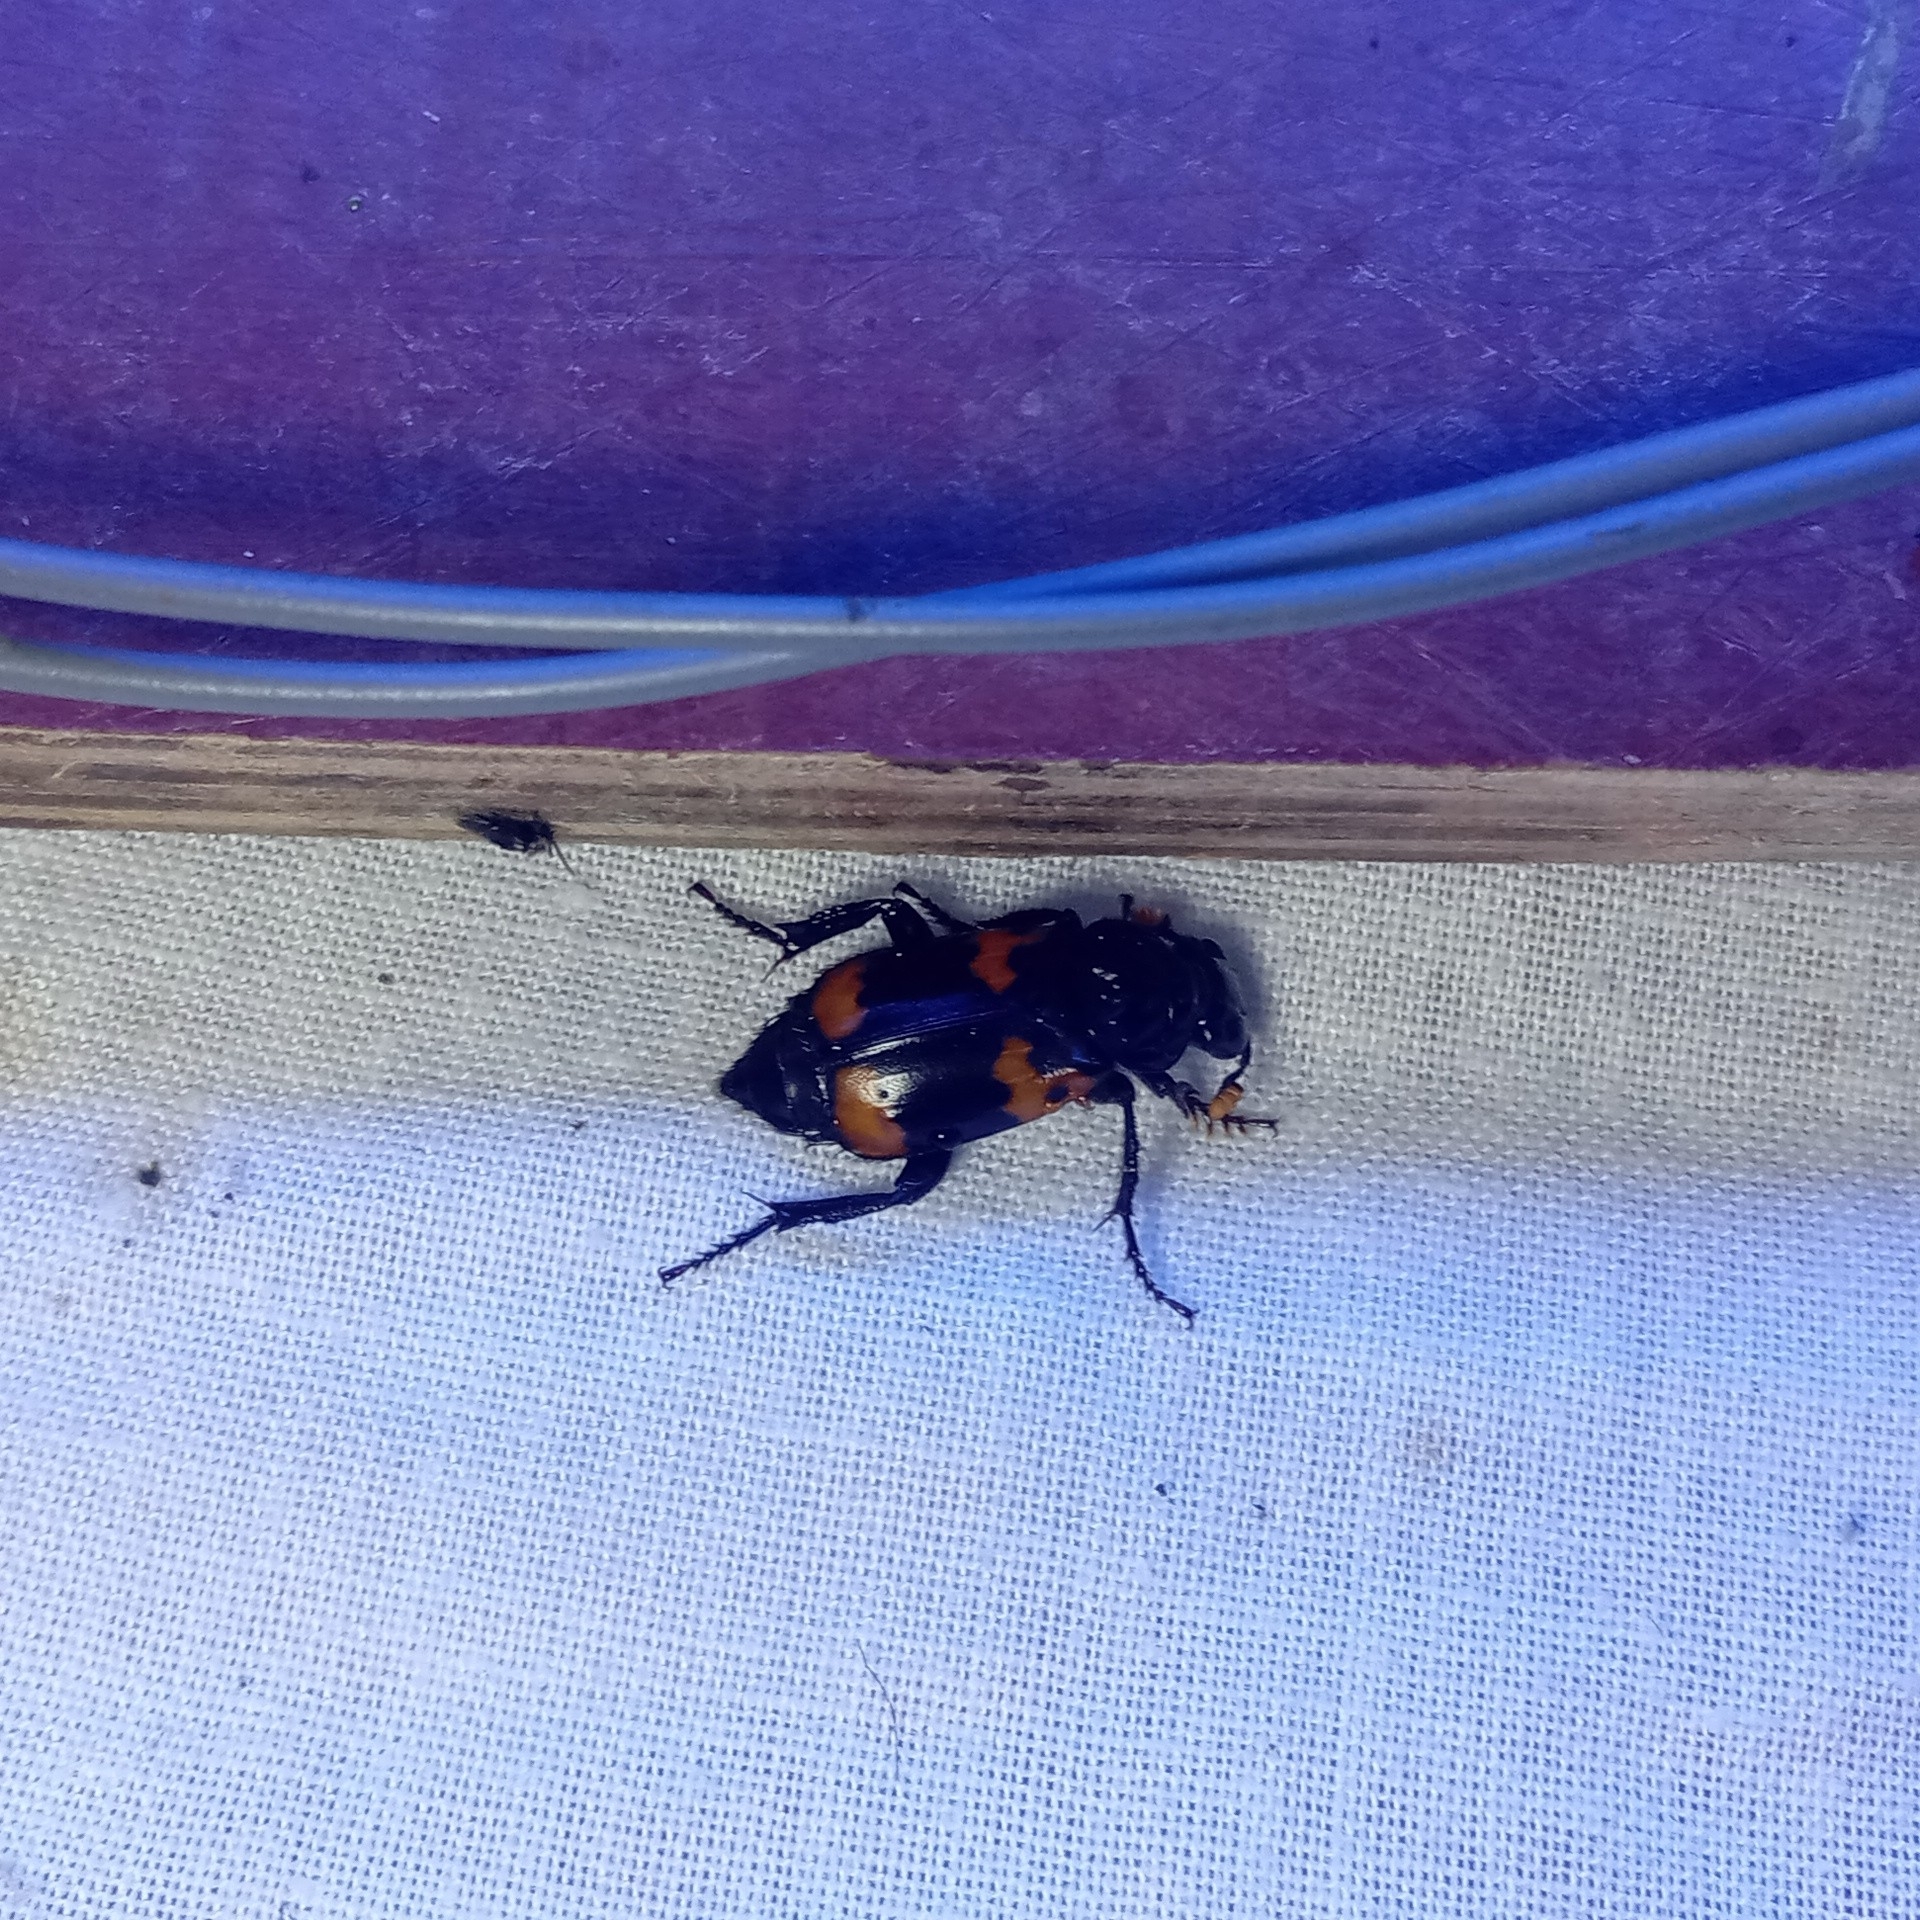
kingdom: Animalia
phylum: Arthropoda
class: Insecta
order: Coleoptera
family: Staphylinidae
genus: Nicrophorus
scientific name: Nicrophorus nepalensis
